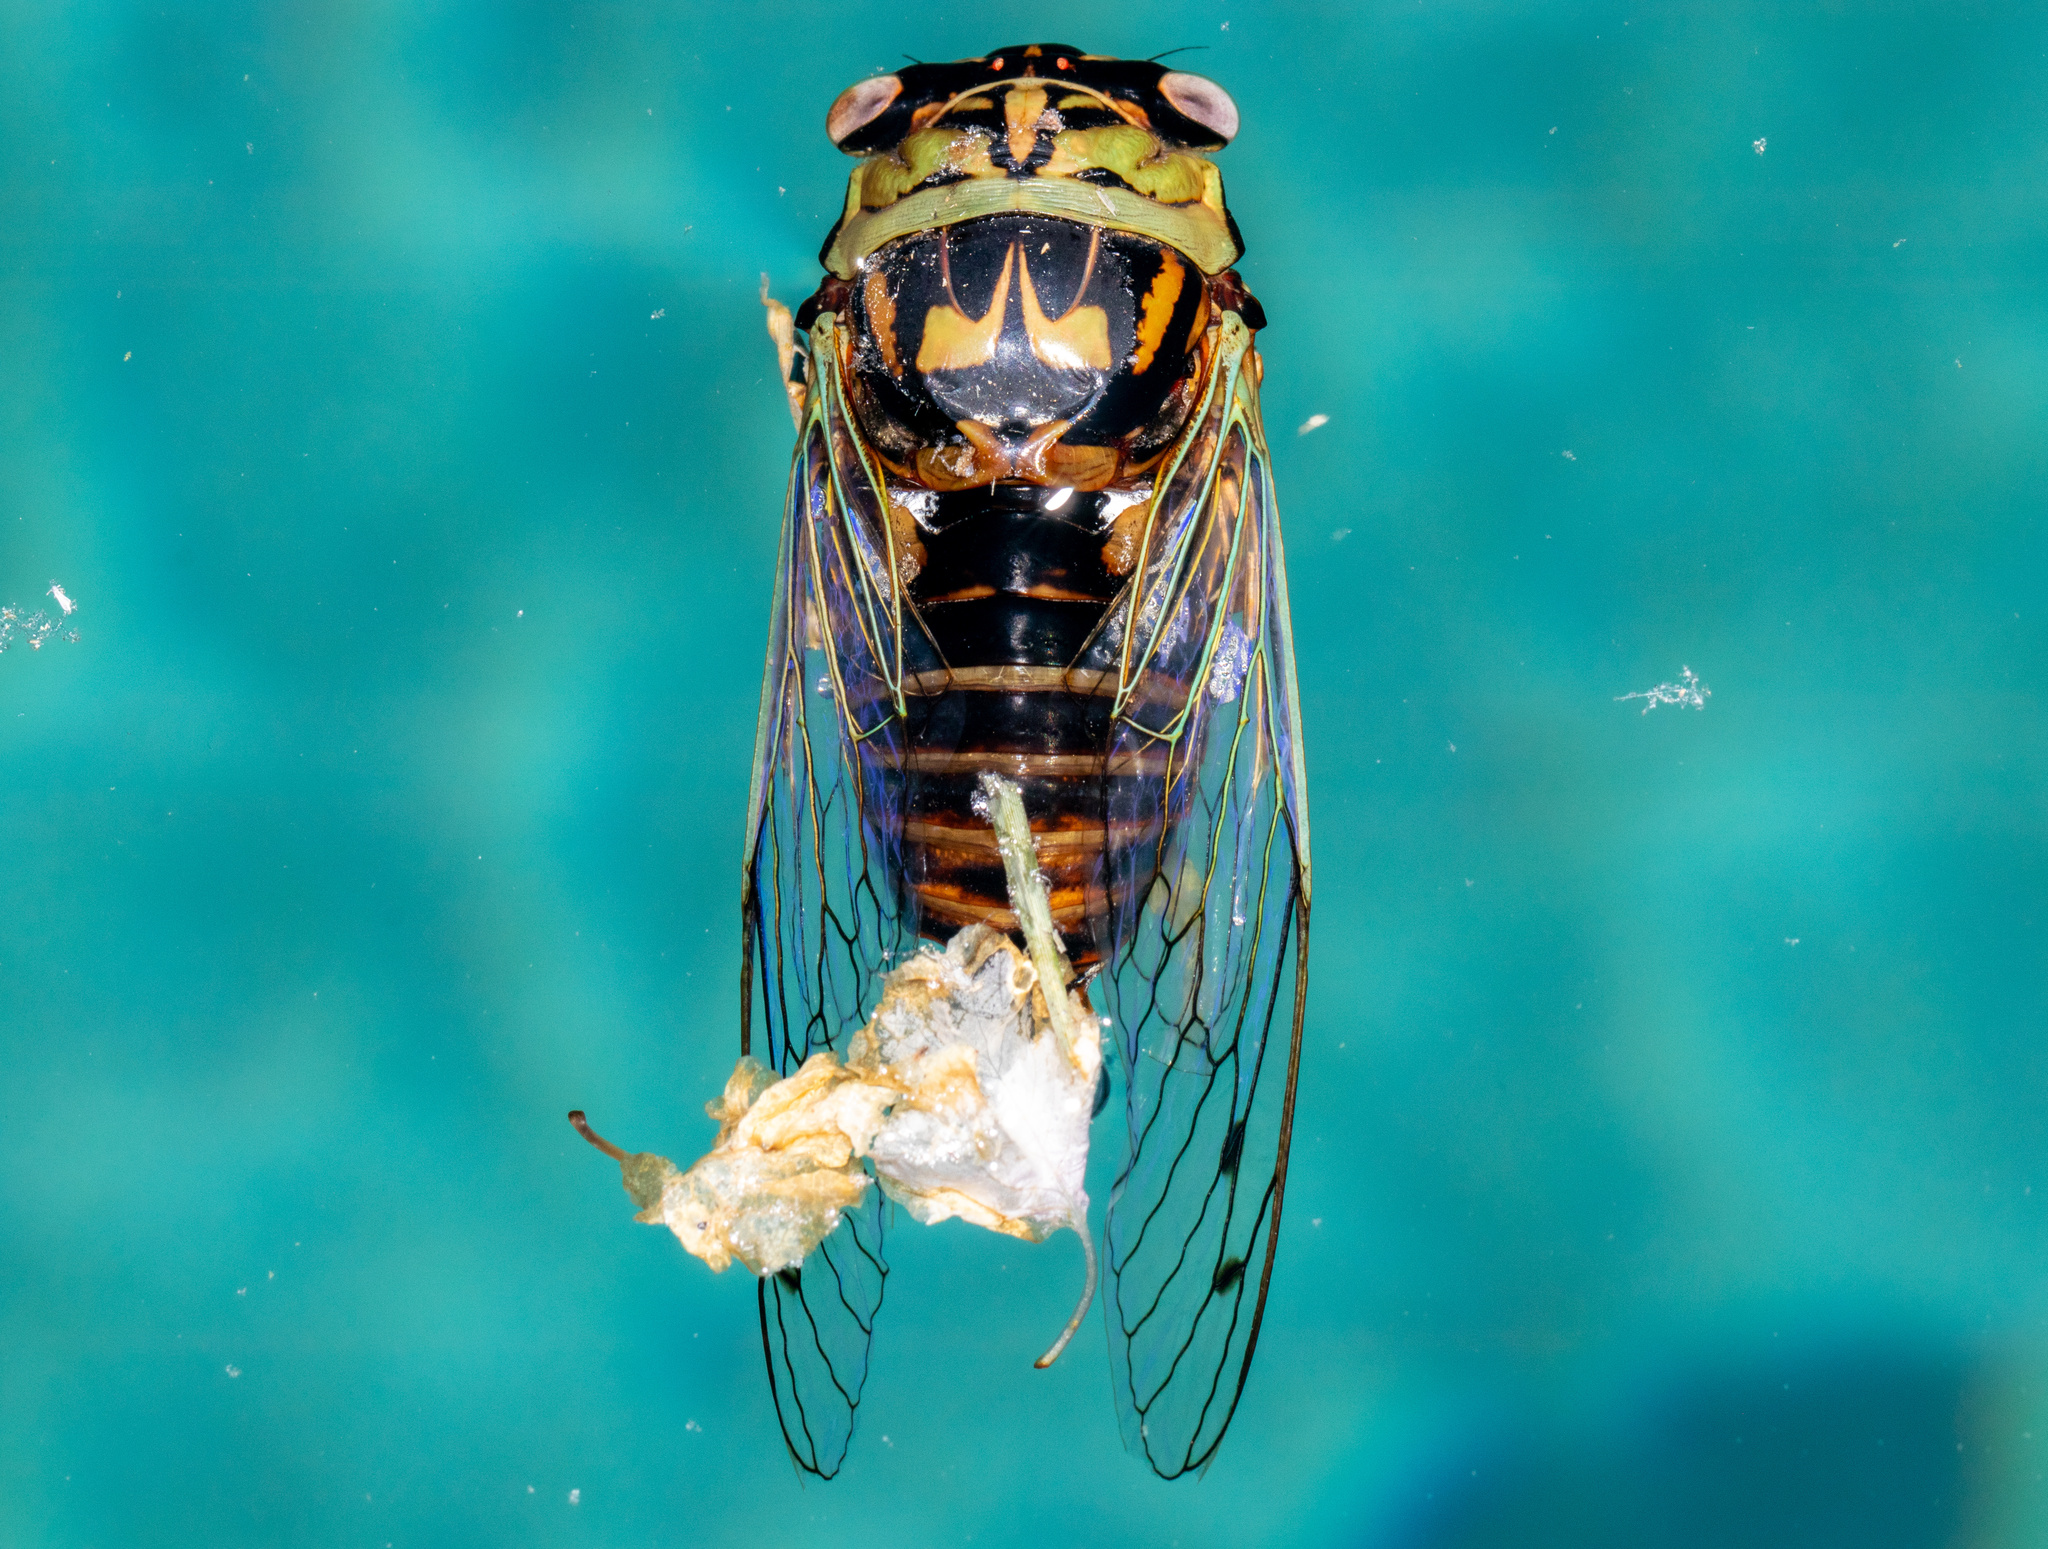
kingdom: Animalia
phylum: Arthropoda
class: Insecta
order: Hemiptera
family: Cicadidae
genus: Megatibicen
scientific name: Megatibicen resh
